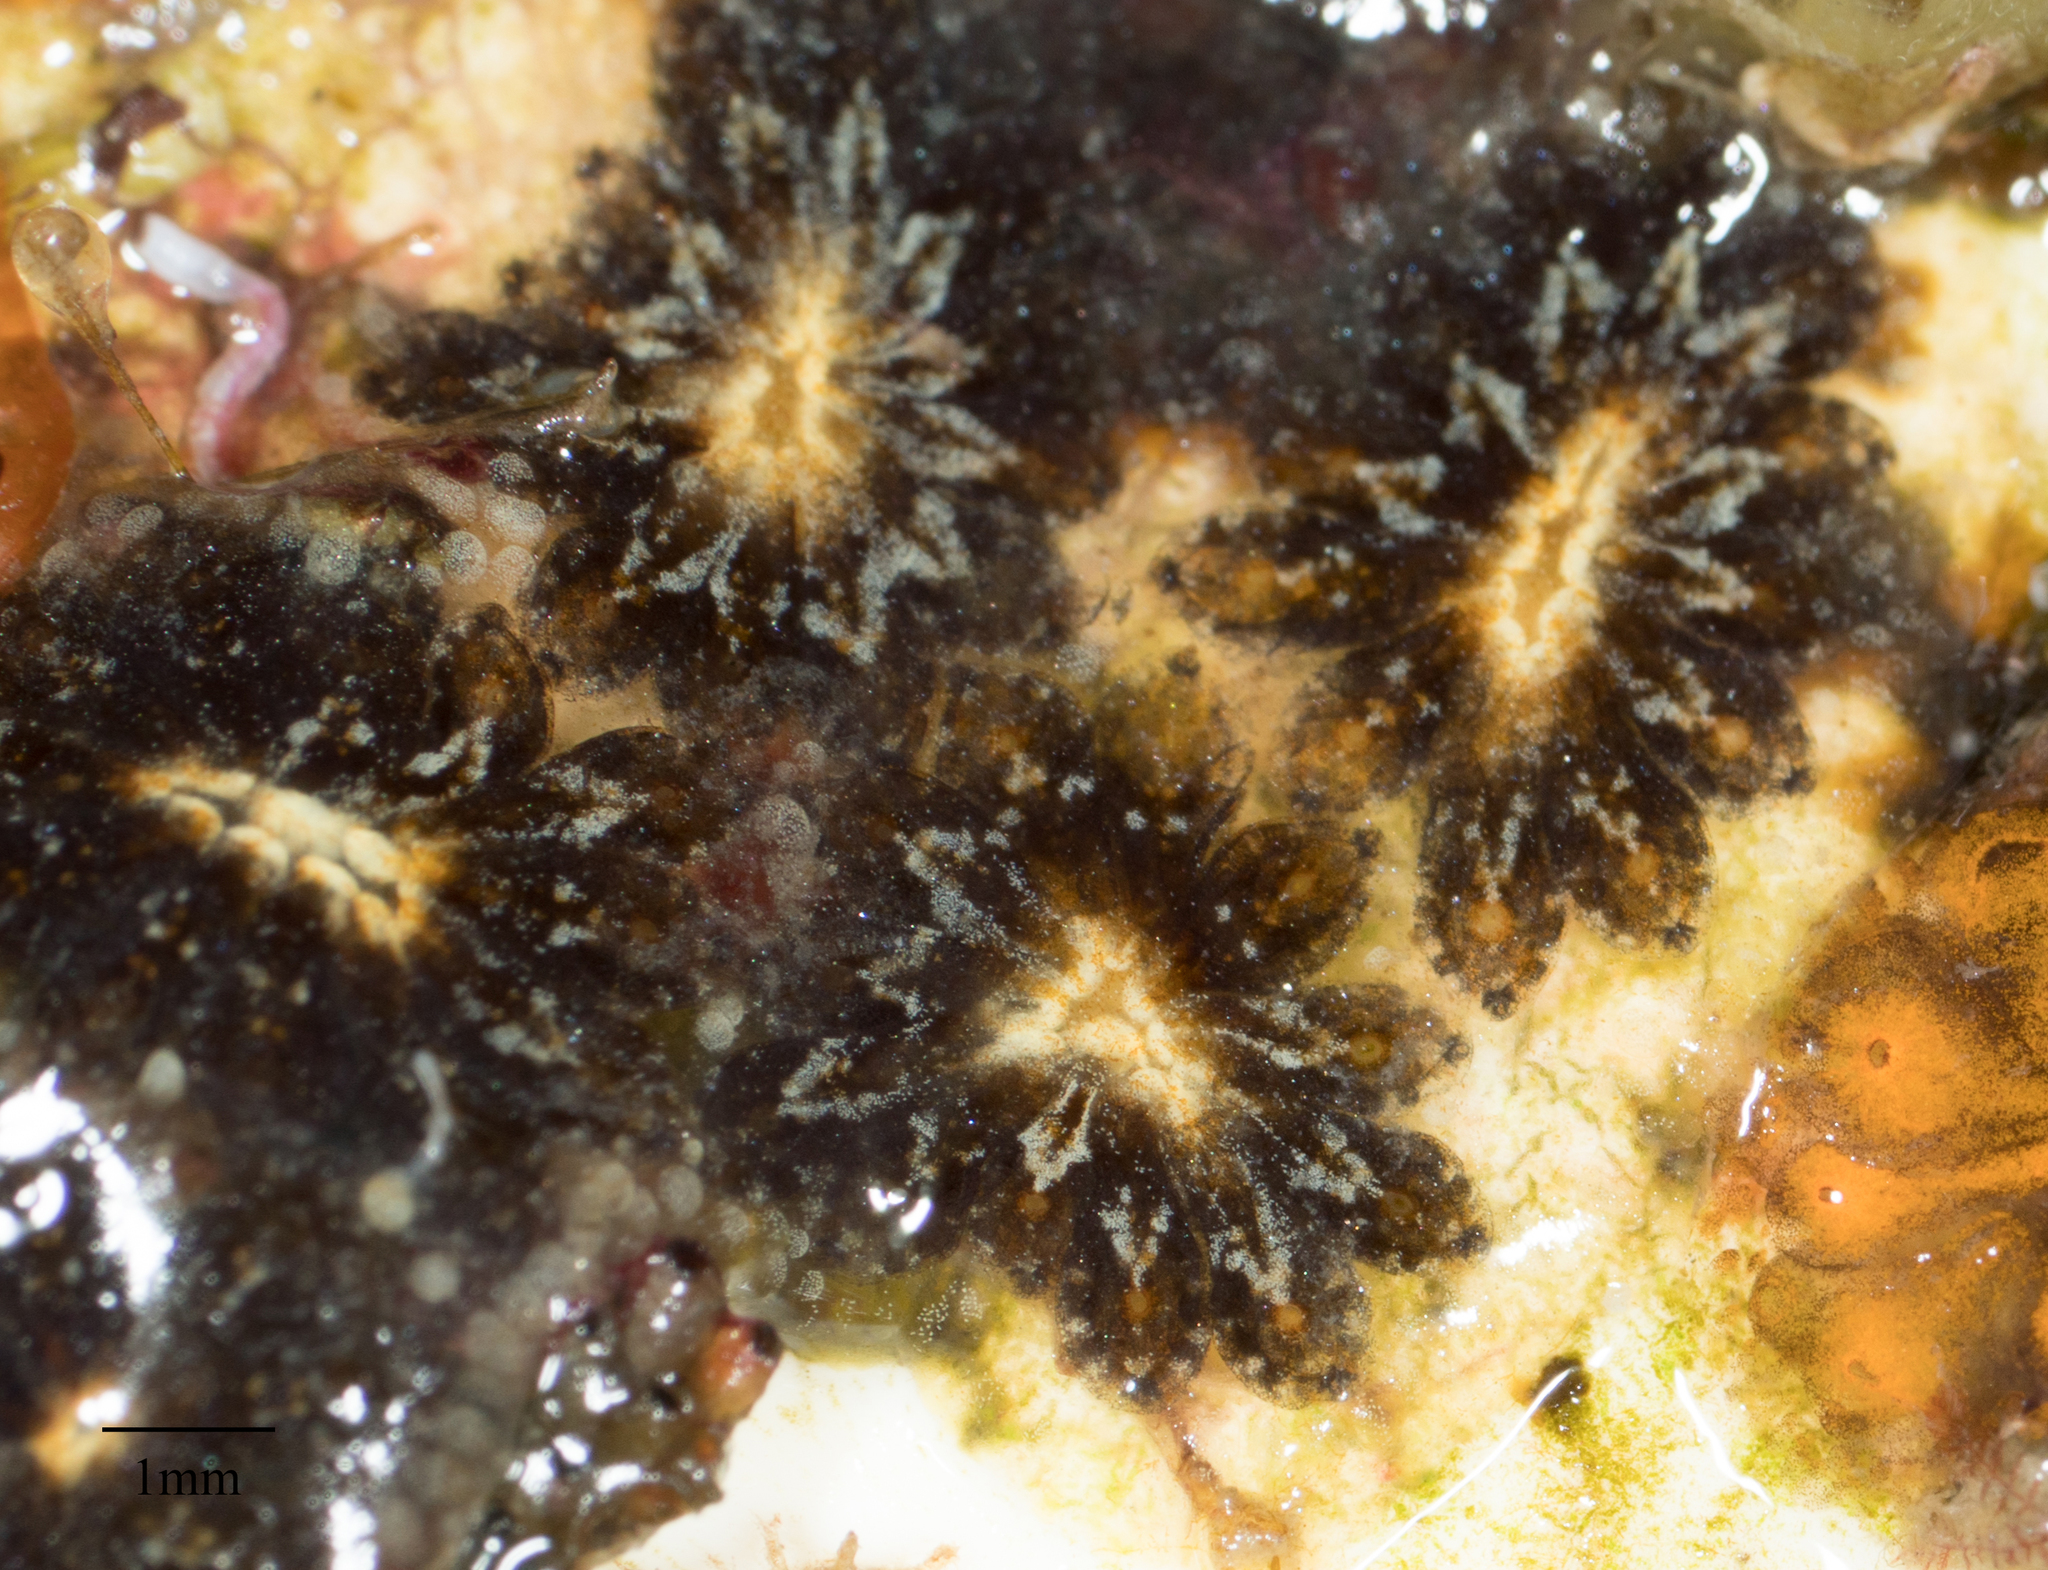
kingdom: Animalia
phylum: Chordata
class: Ascidiacea
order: Stolidobranchia
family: Styelidae
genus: Botryllus
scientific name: Botryllus schlosseri
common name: Golden star tunicate
